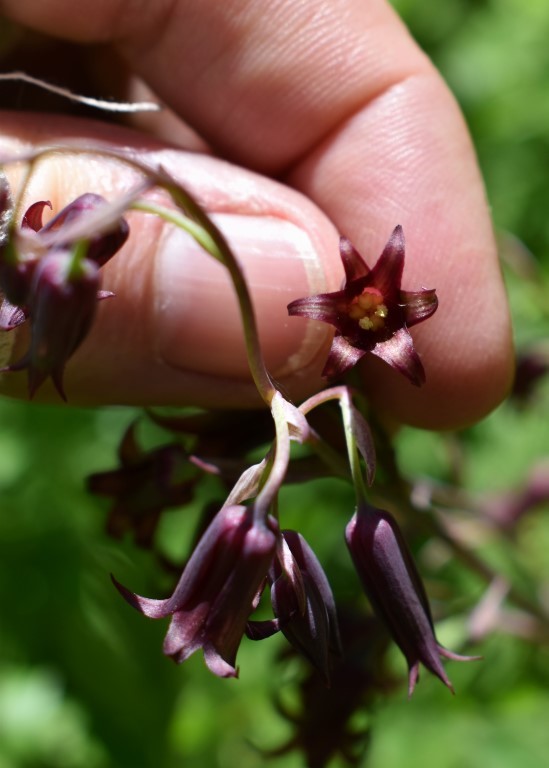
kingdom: Plantae
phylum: Tracheophyta
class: Liliopsida
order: Liliales
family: Melanthiaceae
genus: Anticlea
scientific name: Anticlea occidentalis
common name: Bronze-bells
